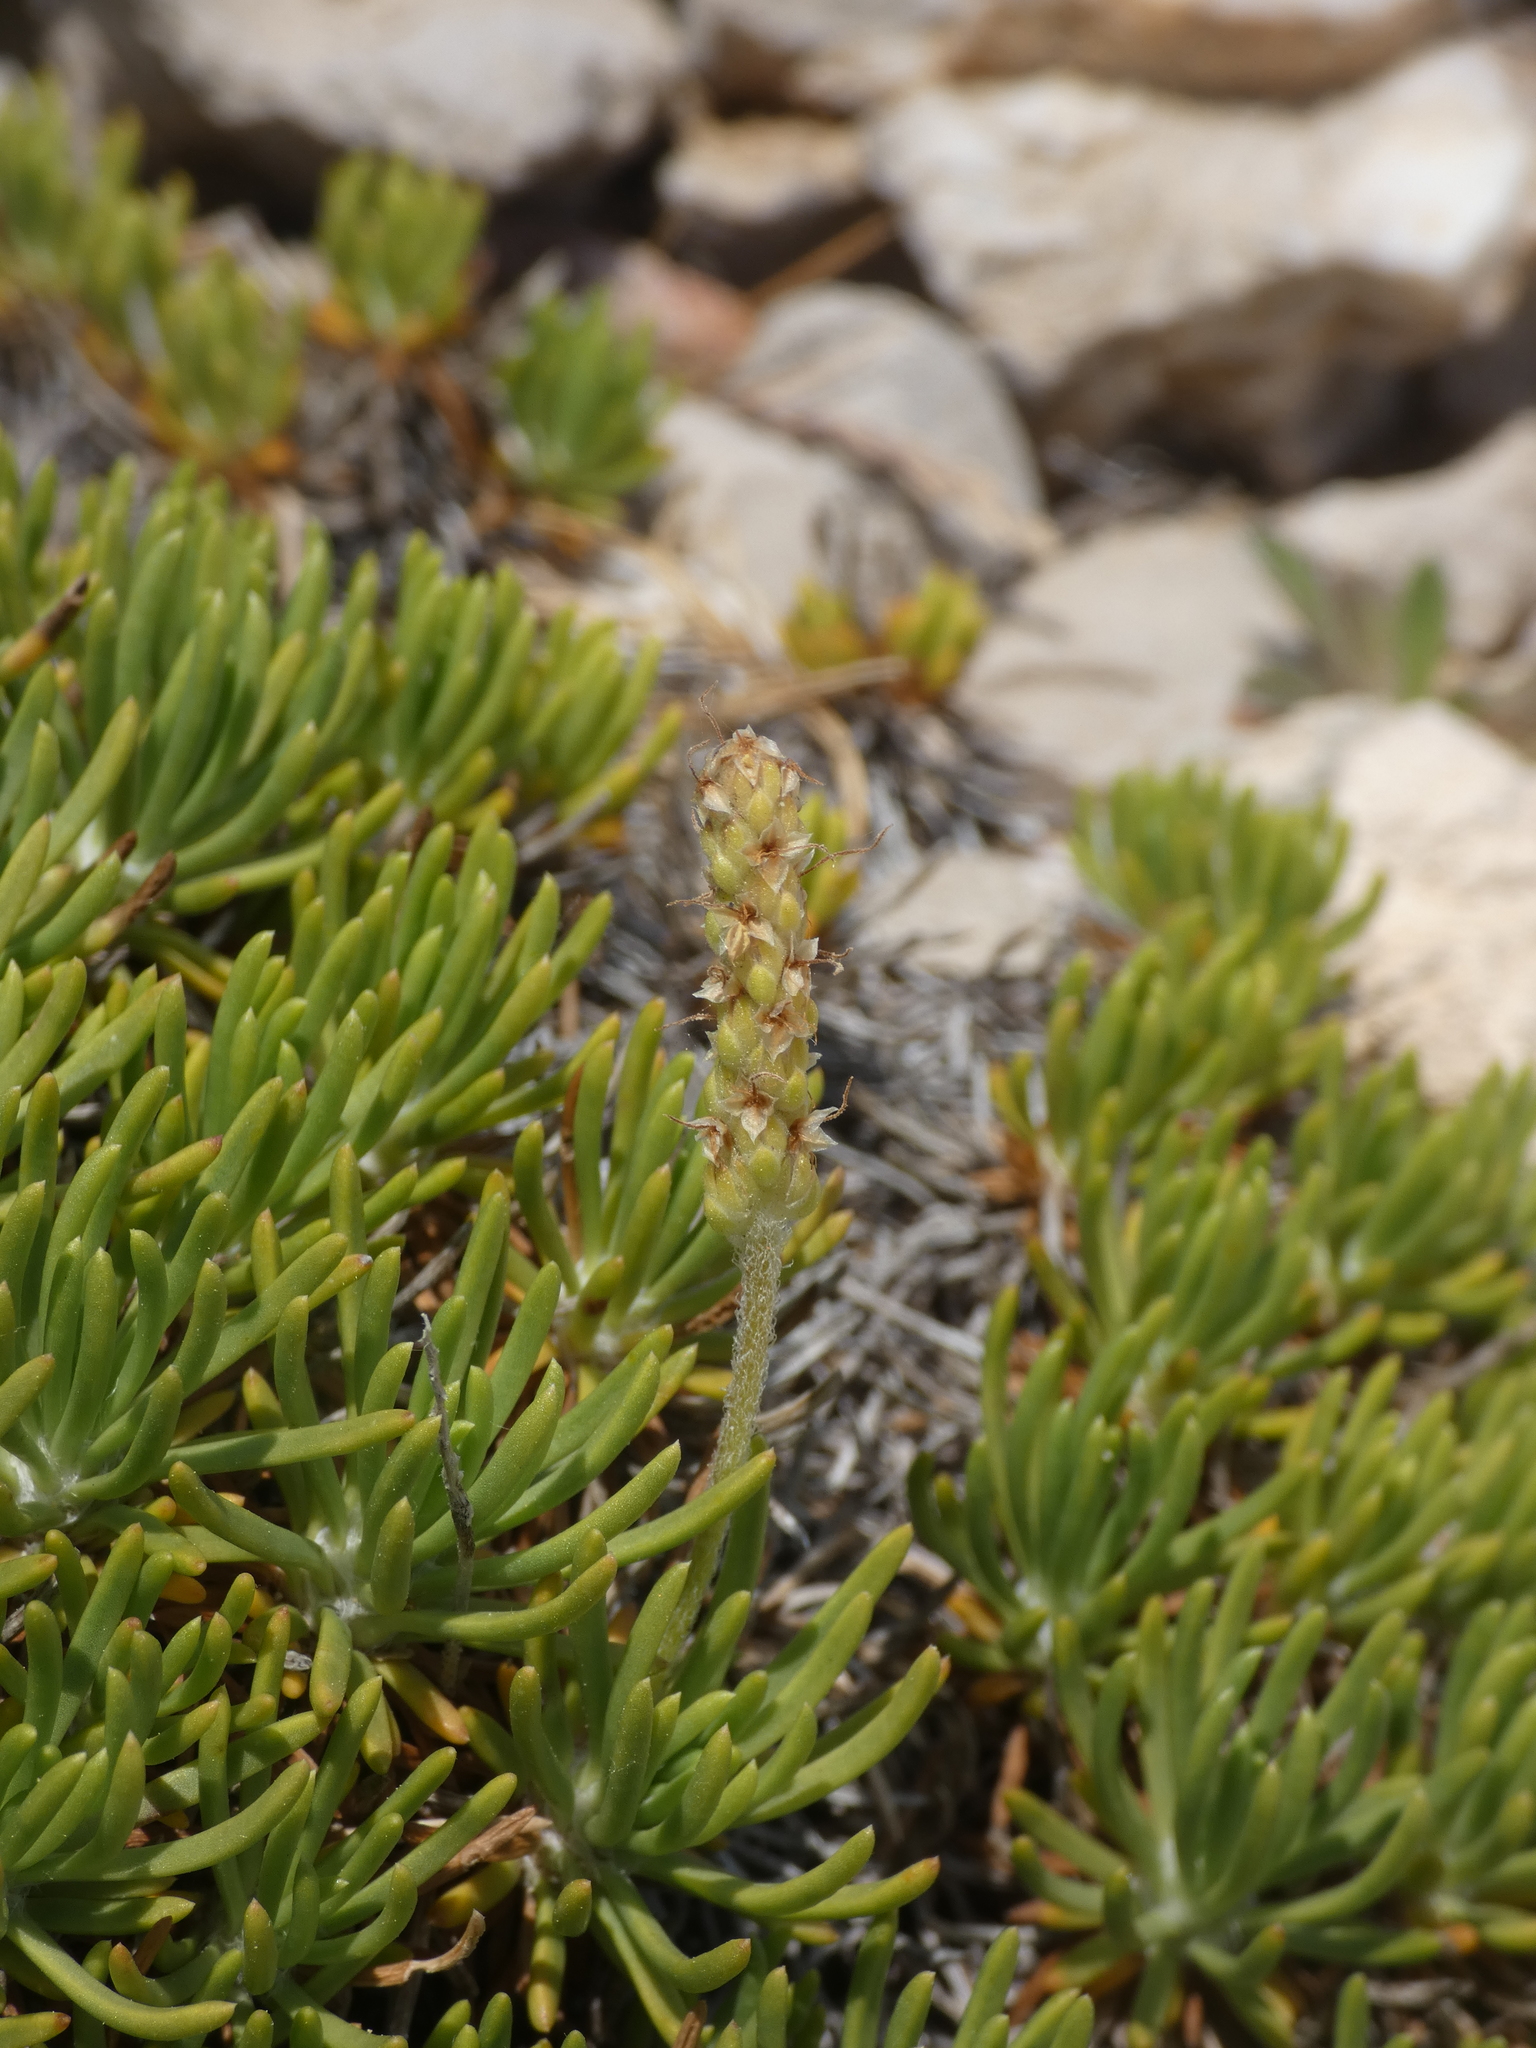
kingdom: Plantae
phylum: Tracheophyta
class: Magnoliopsida
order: Lamiales
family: Plantaginaceae
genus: Plantago
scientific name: Plantago subulata
